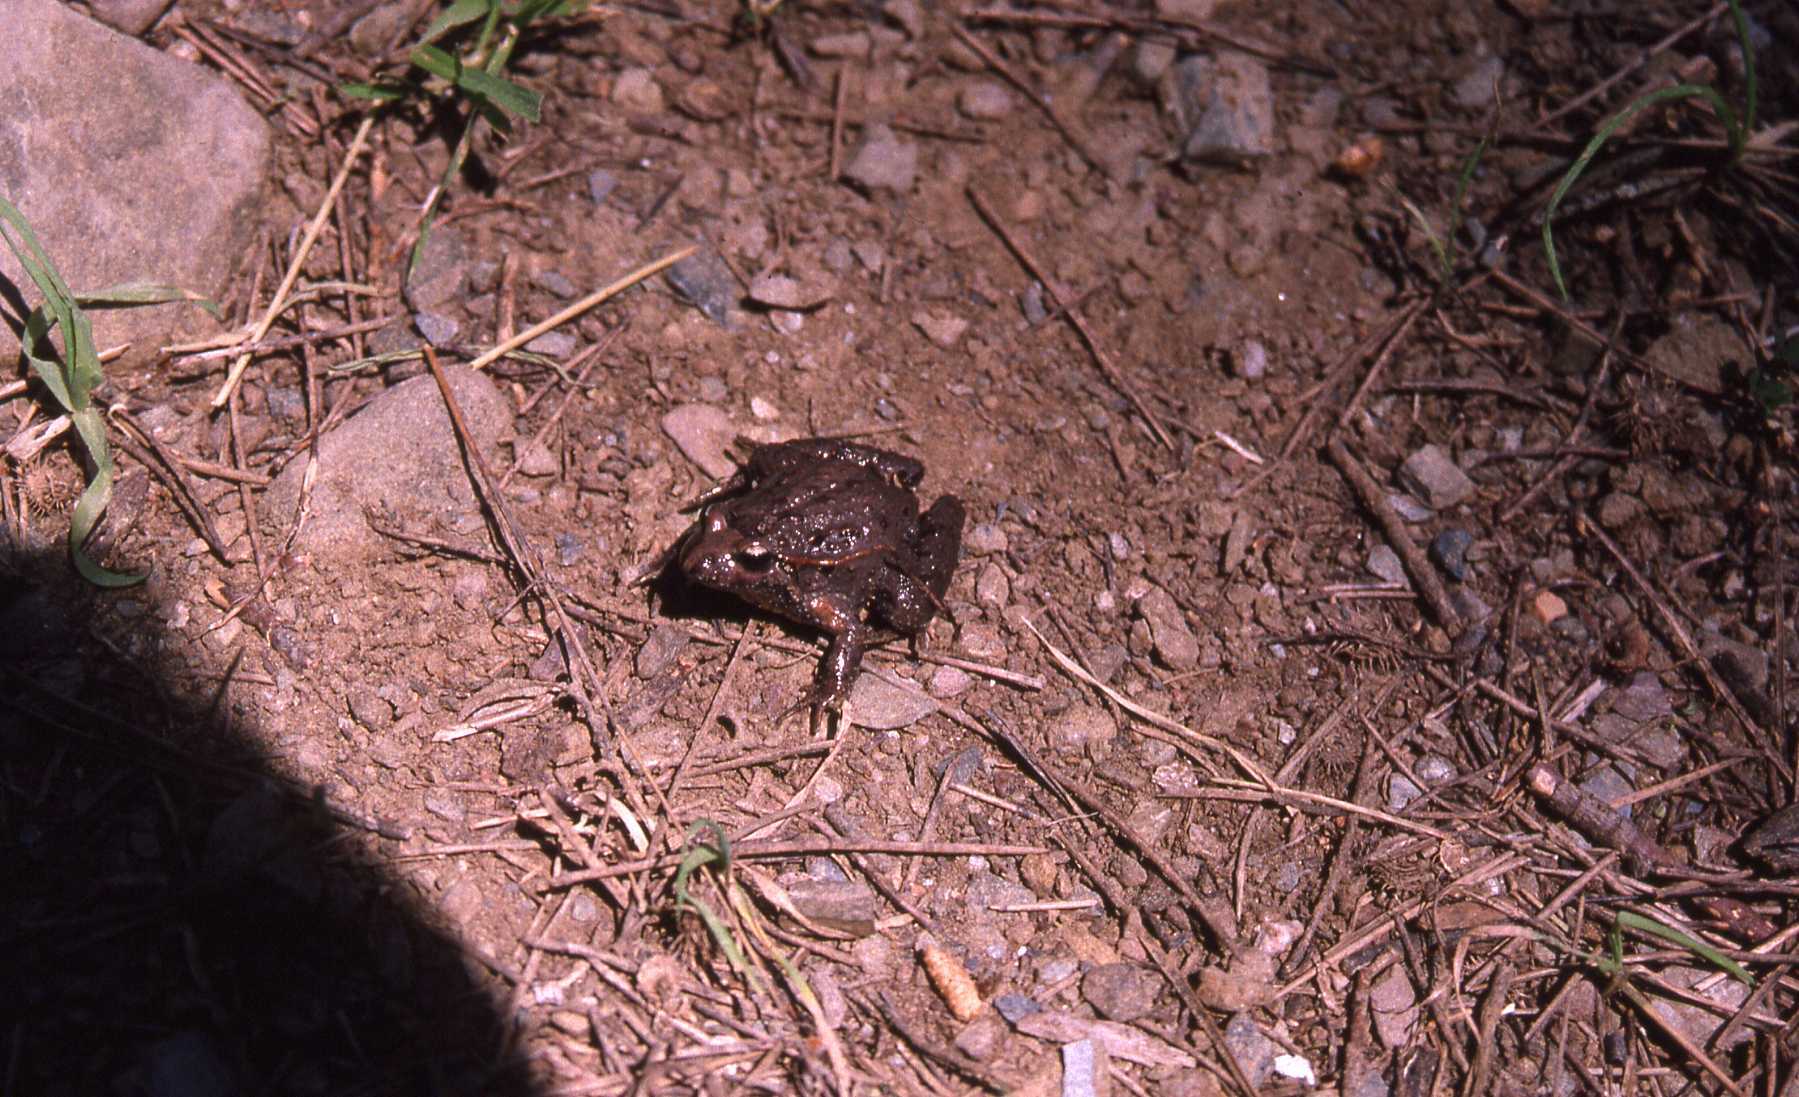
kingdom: Animalia
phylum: Chordata
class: Amphibia
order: Anura
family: Alytidae
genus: Discoglossus
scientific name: Discoglossus jeanneae
